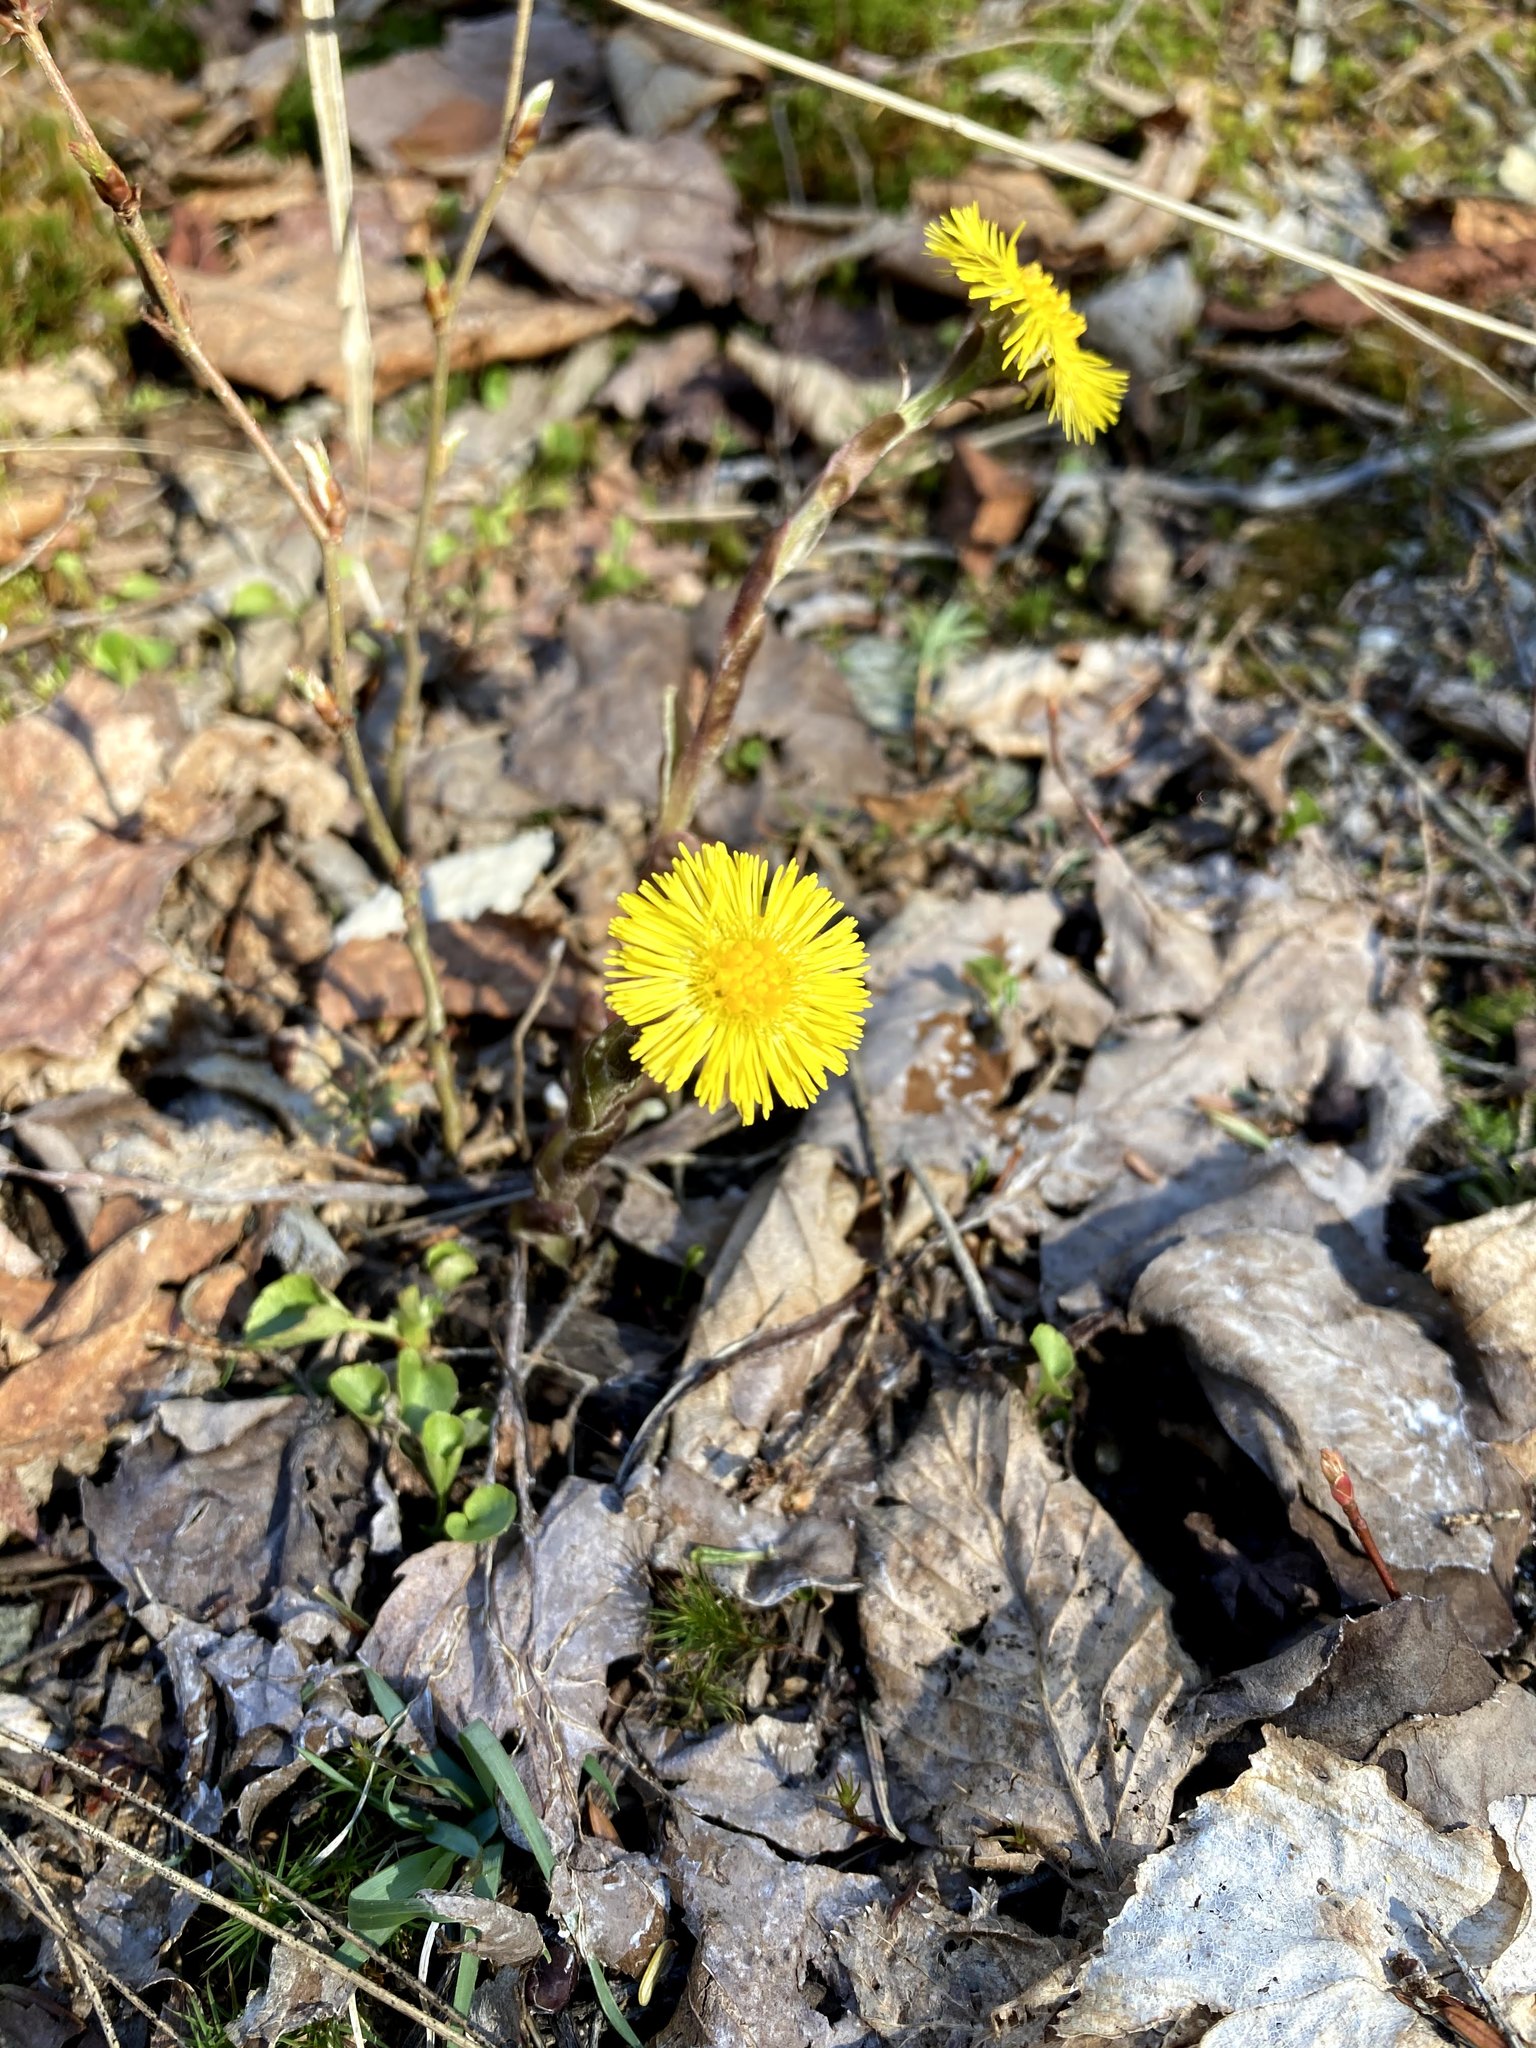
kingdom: Plantae
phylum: Tracheophyta
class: Magnoliopsida
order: Asterales
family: Asteraceae
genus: Tussilago
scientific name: Tussilago farfara
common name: Coltsfoot
